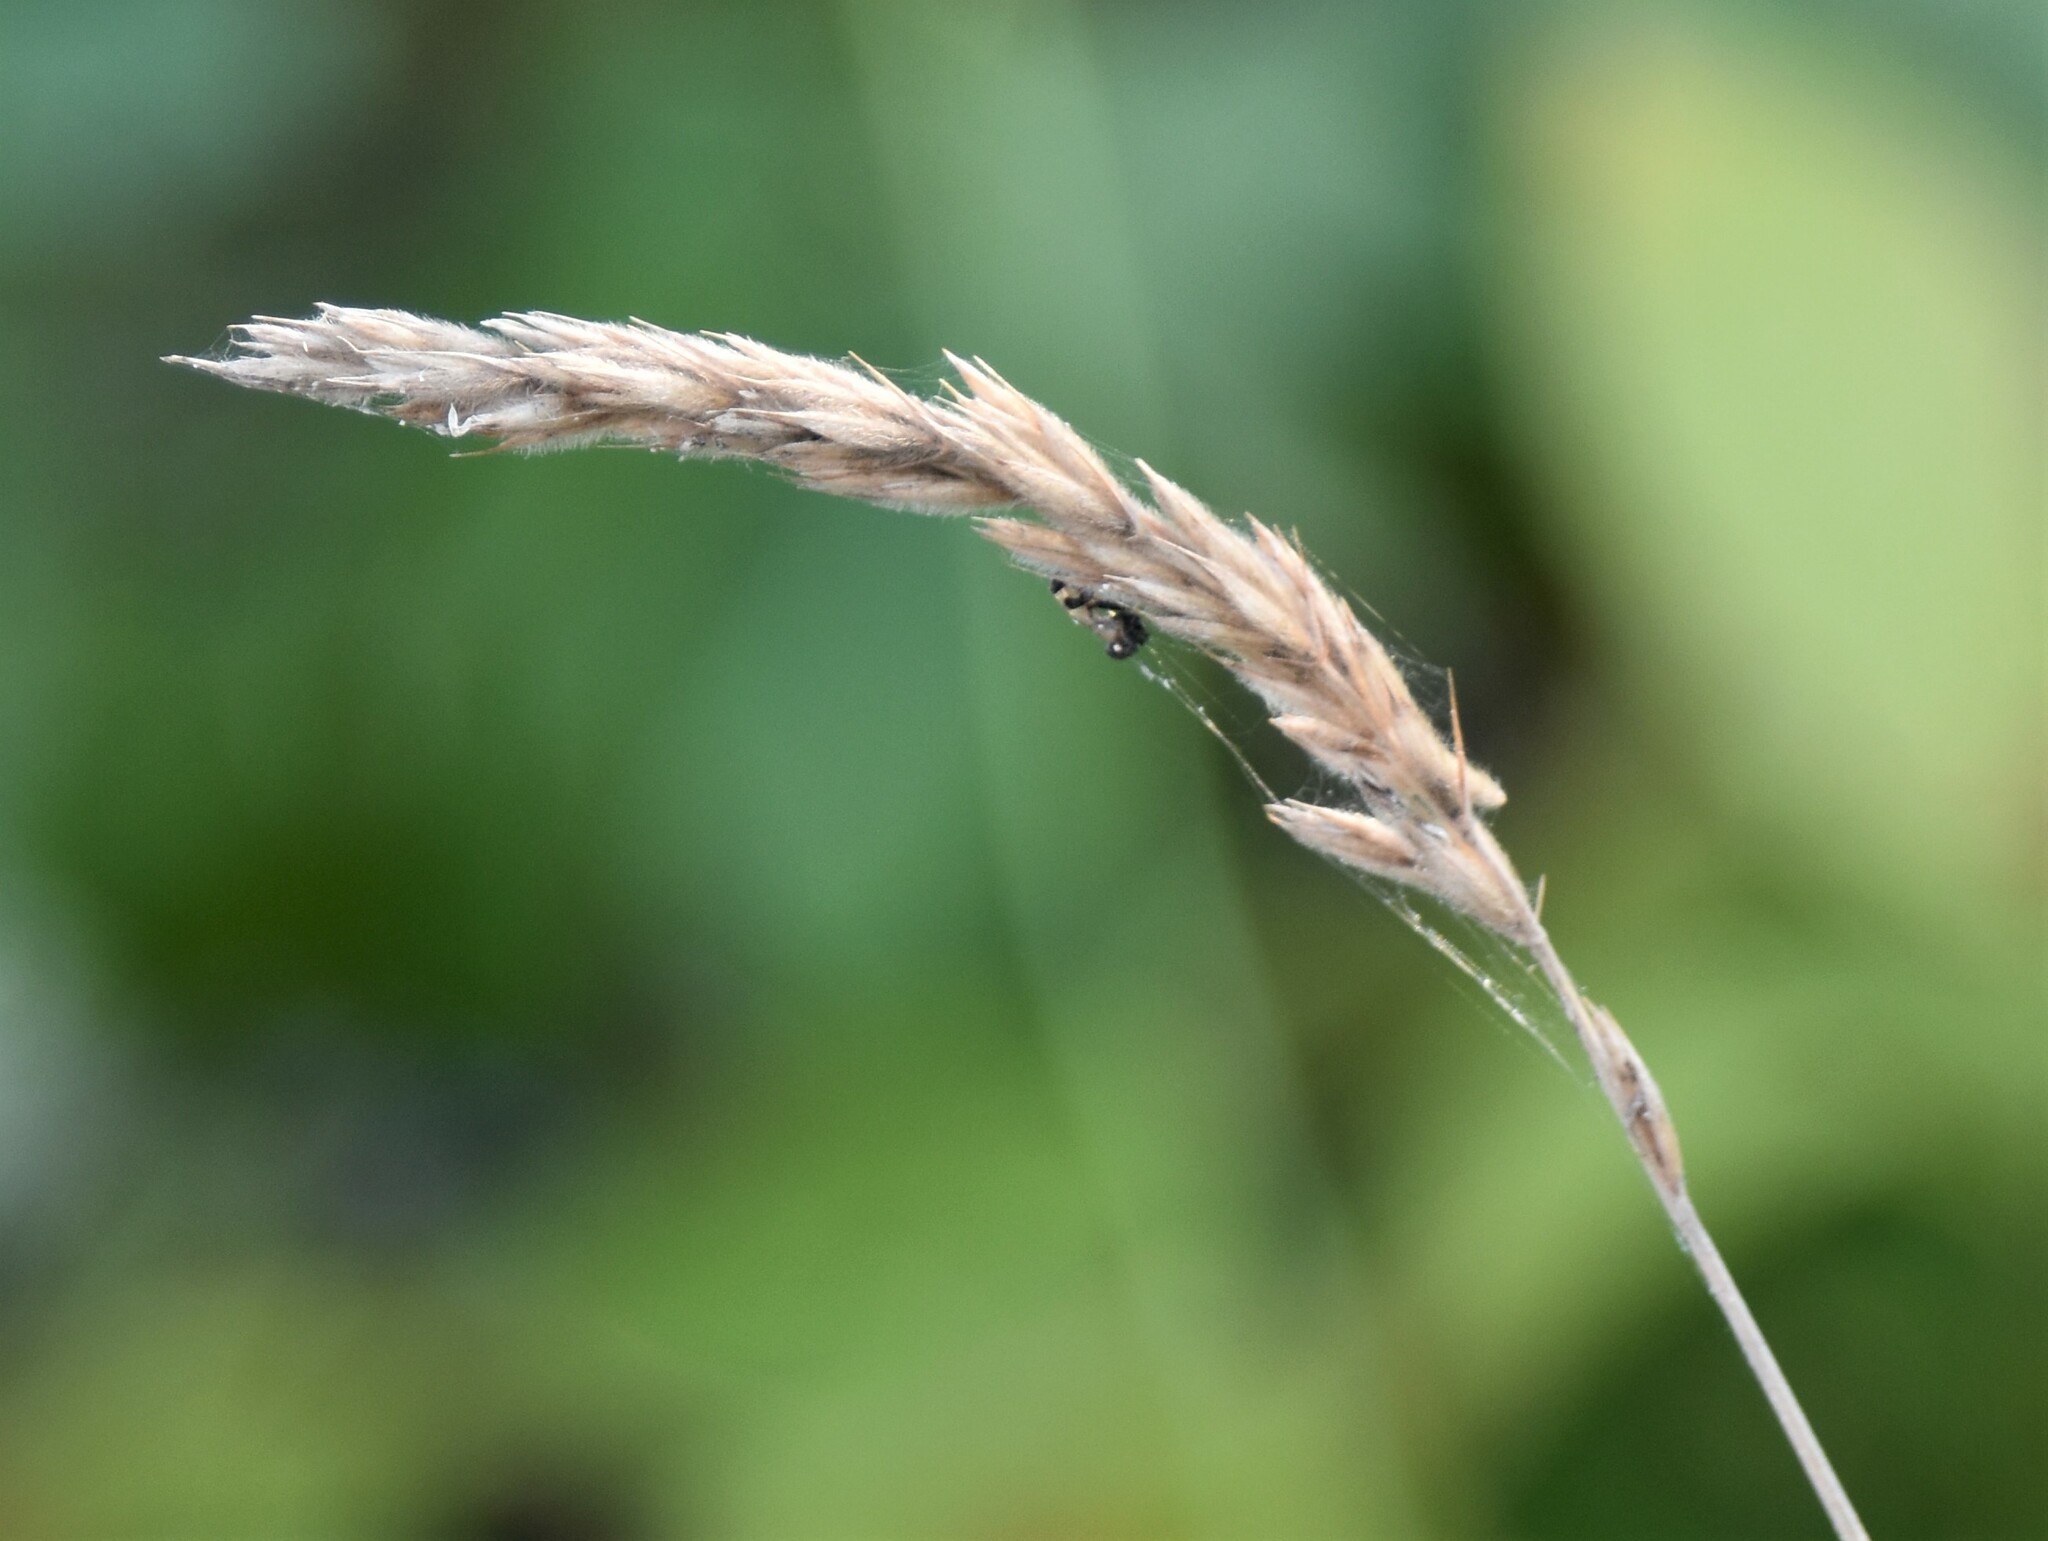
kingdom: Plantae
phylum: Tracheophyta
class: Liliopsida
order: Poales
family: Poaceae
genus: Leymus
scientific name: Leymus innovatus
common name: Boreal wild rye
